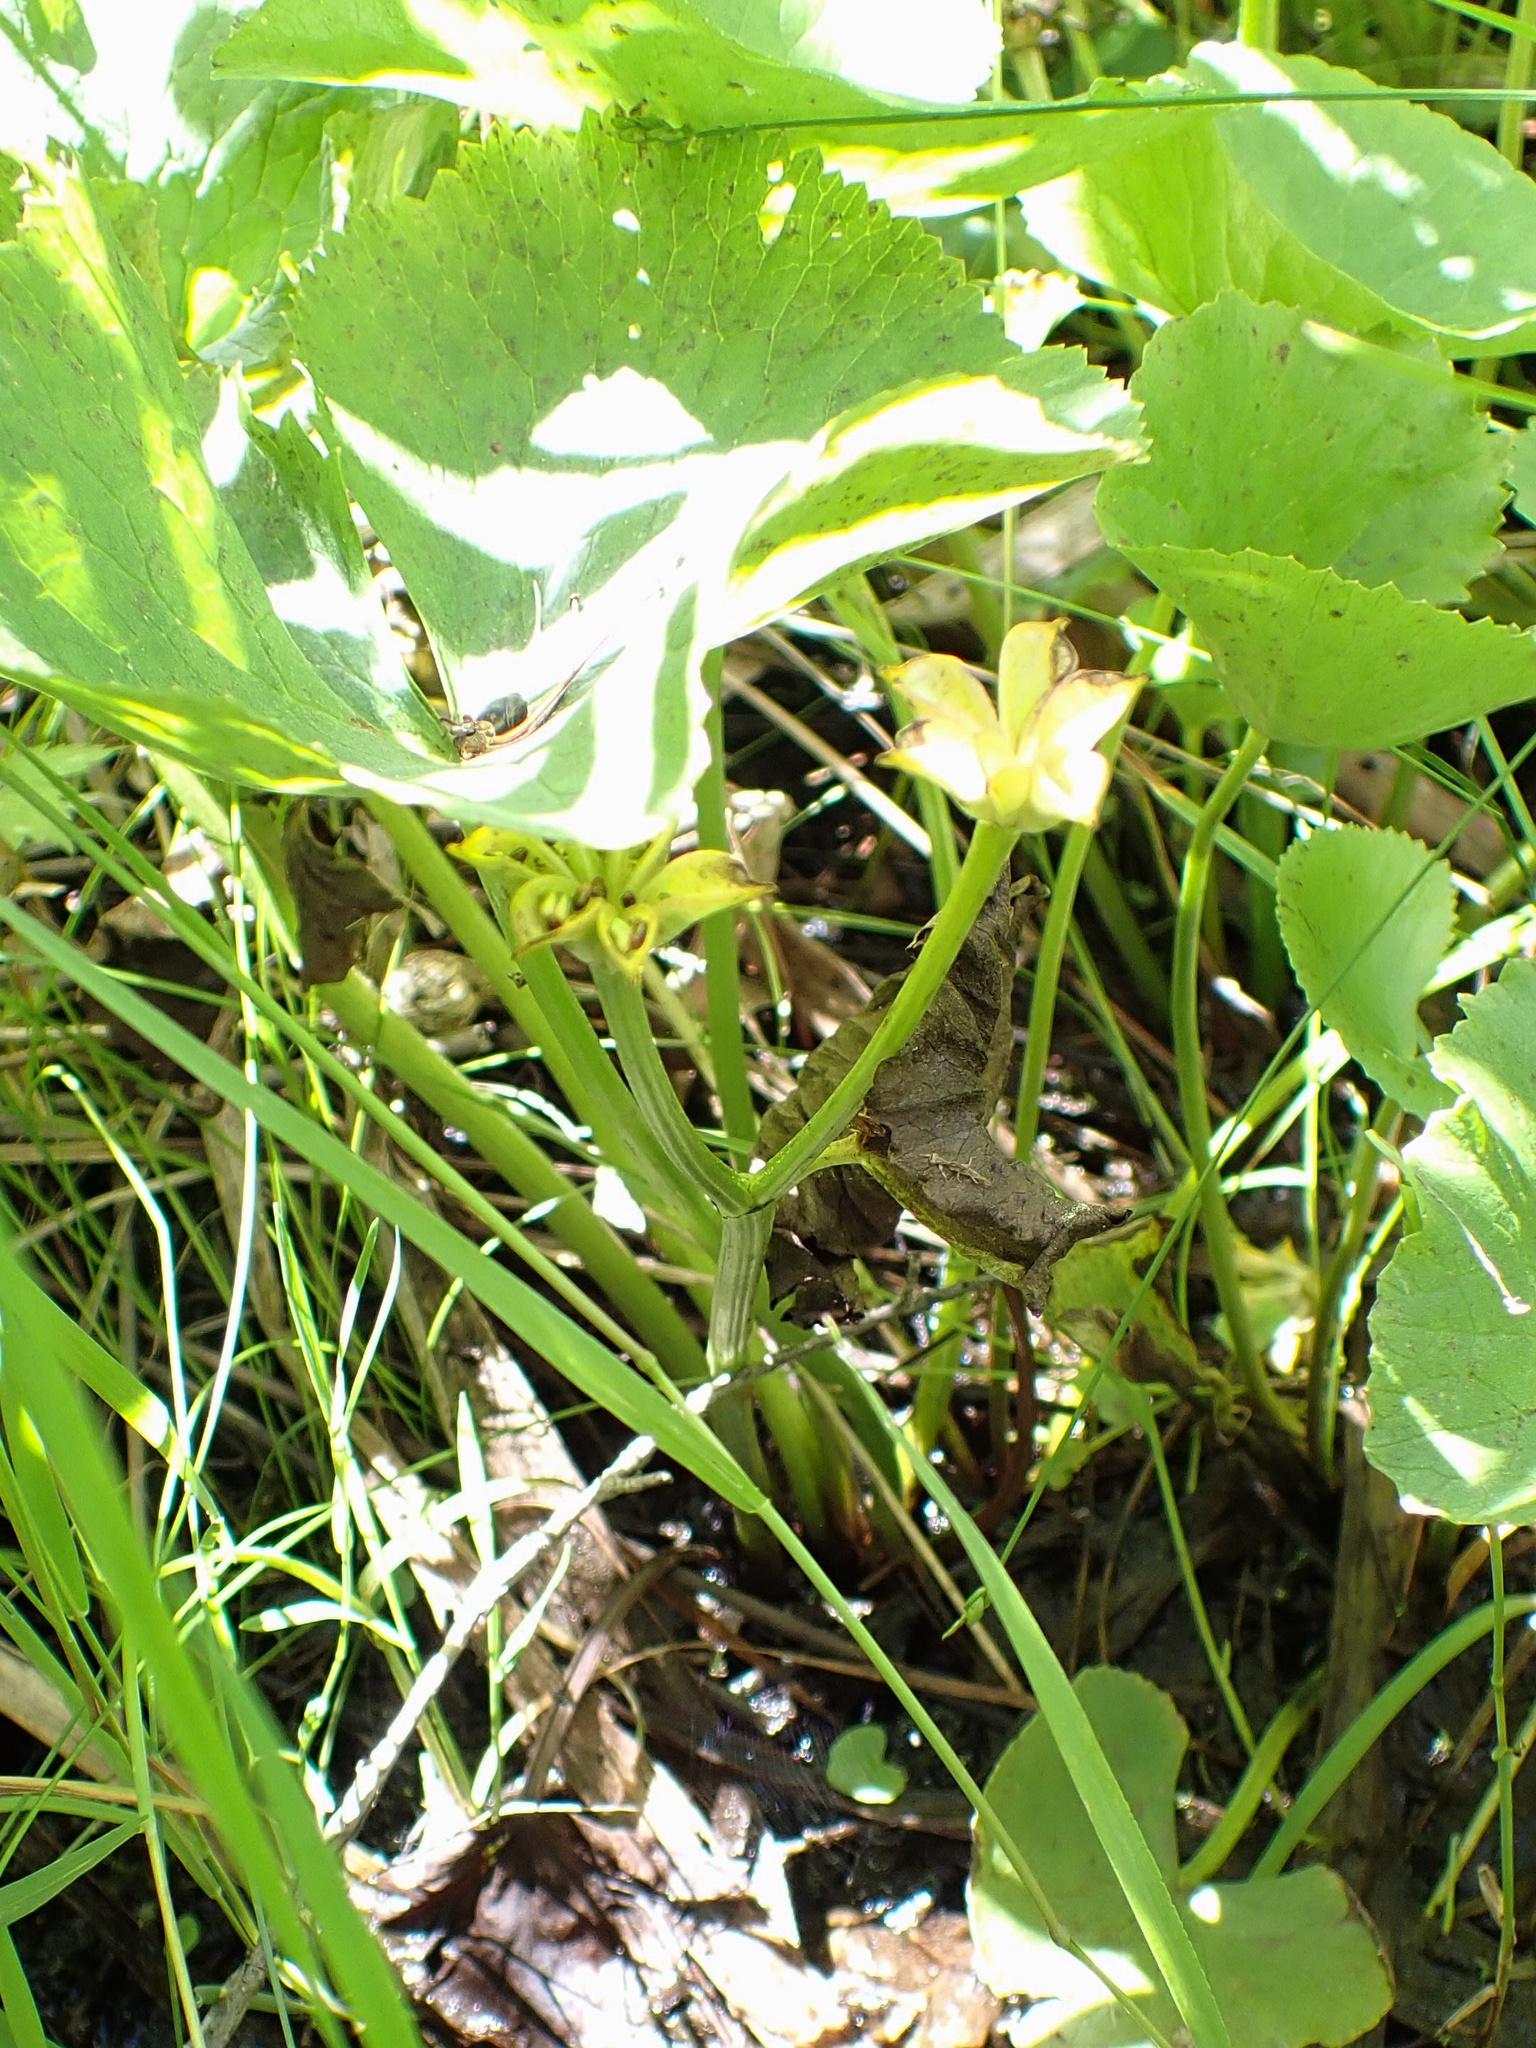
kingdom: Plantae
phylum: Tracheophyta
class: Magnoliopsida
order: Ranunculales
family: Ranunculaceae
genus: Caltha
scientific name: Caltha palustris
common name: Marsh marigold
